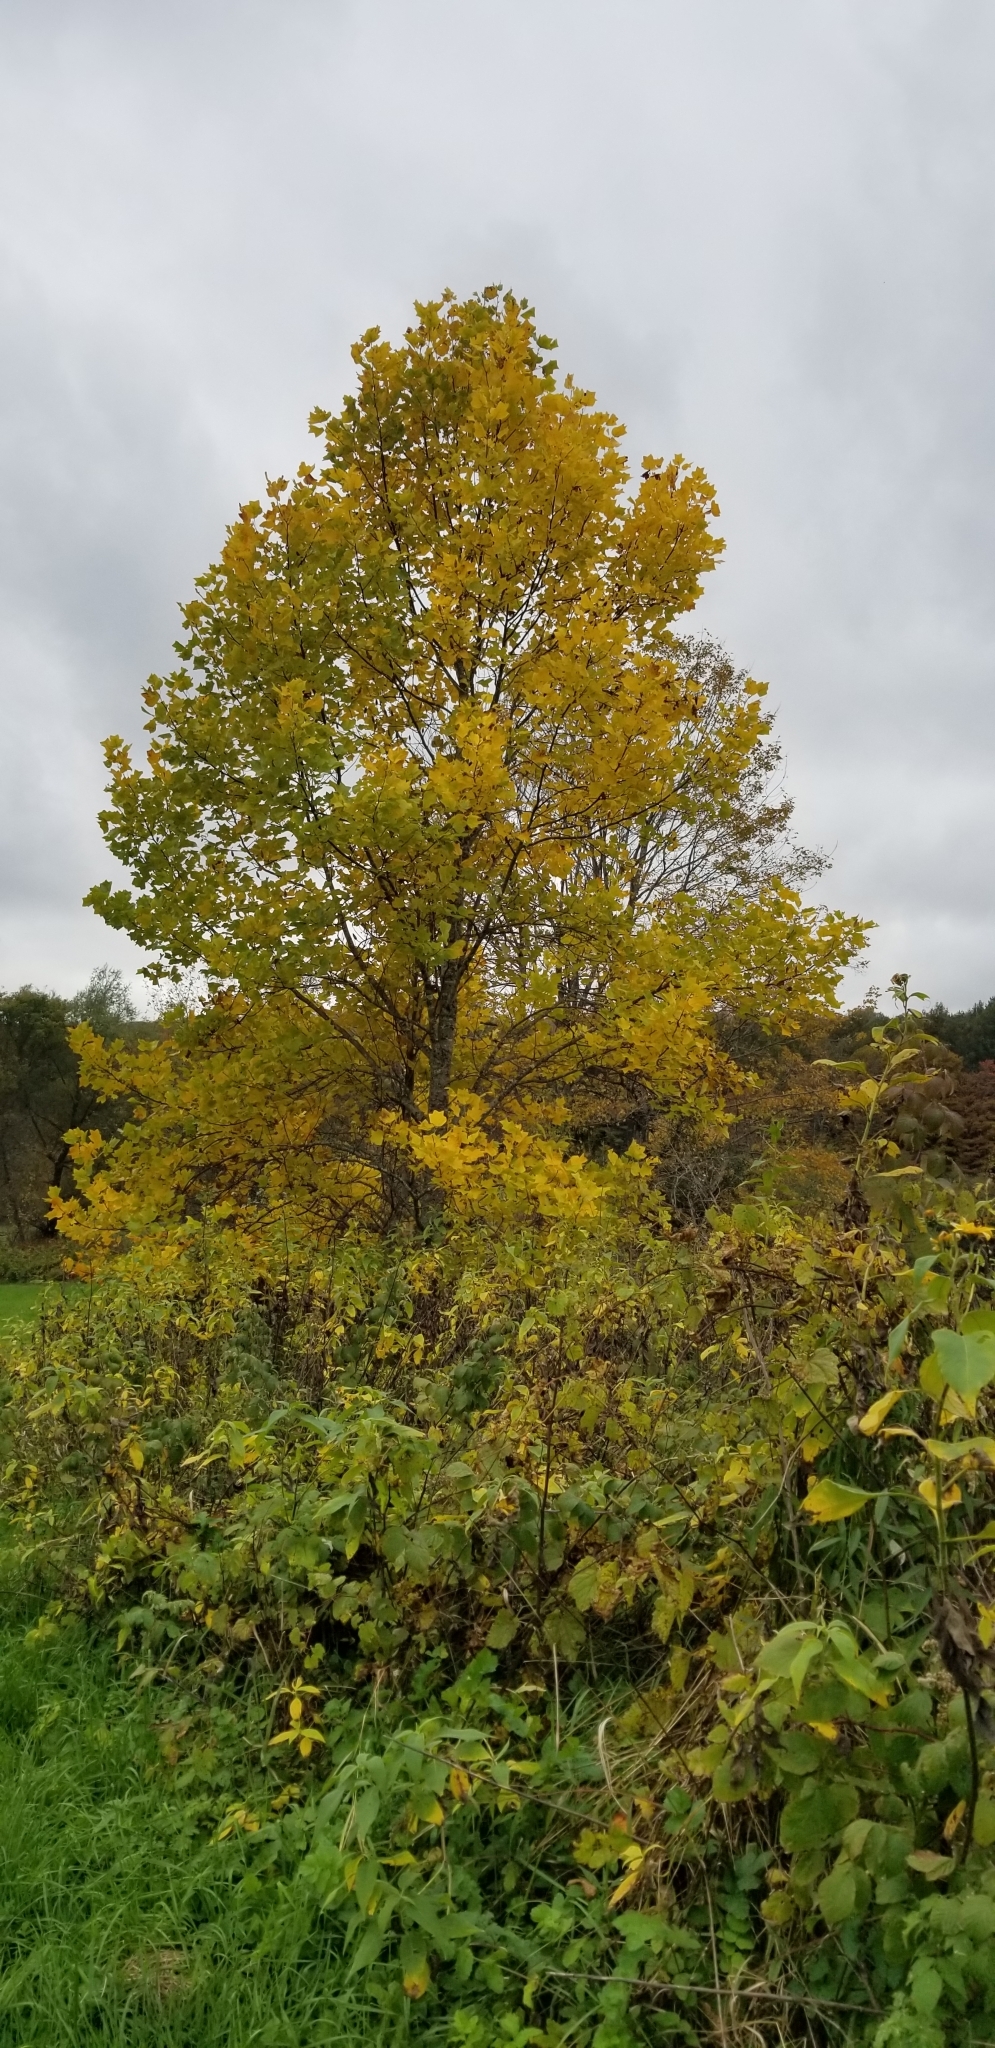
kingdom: Plantae
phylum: Tracheophyta
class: Magnoliopsida
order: Magnoliales
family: Magnoliaceae
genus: Liriodendron
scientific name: Liriodendron tulipifera
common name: Tulip tree
